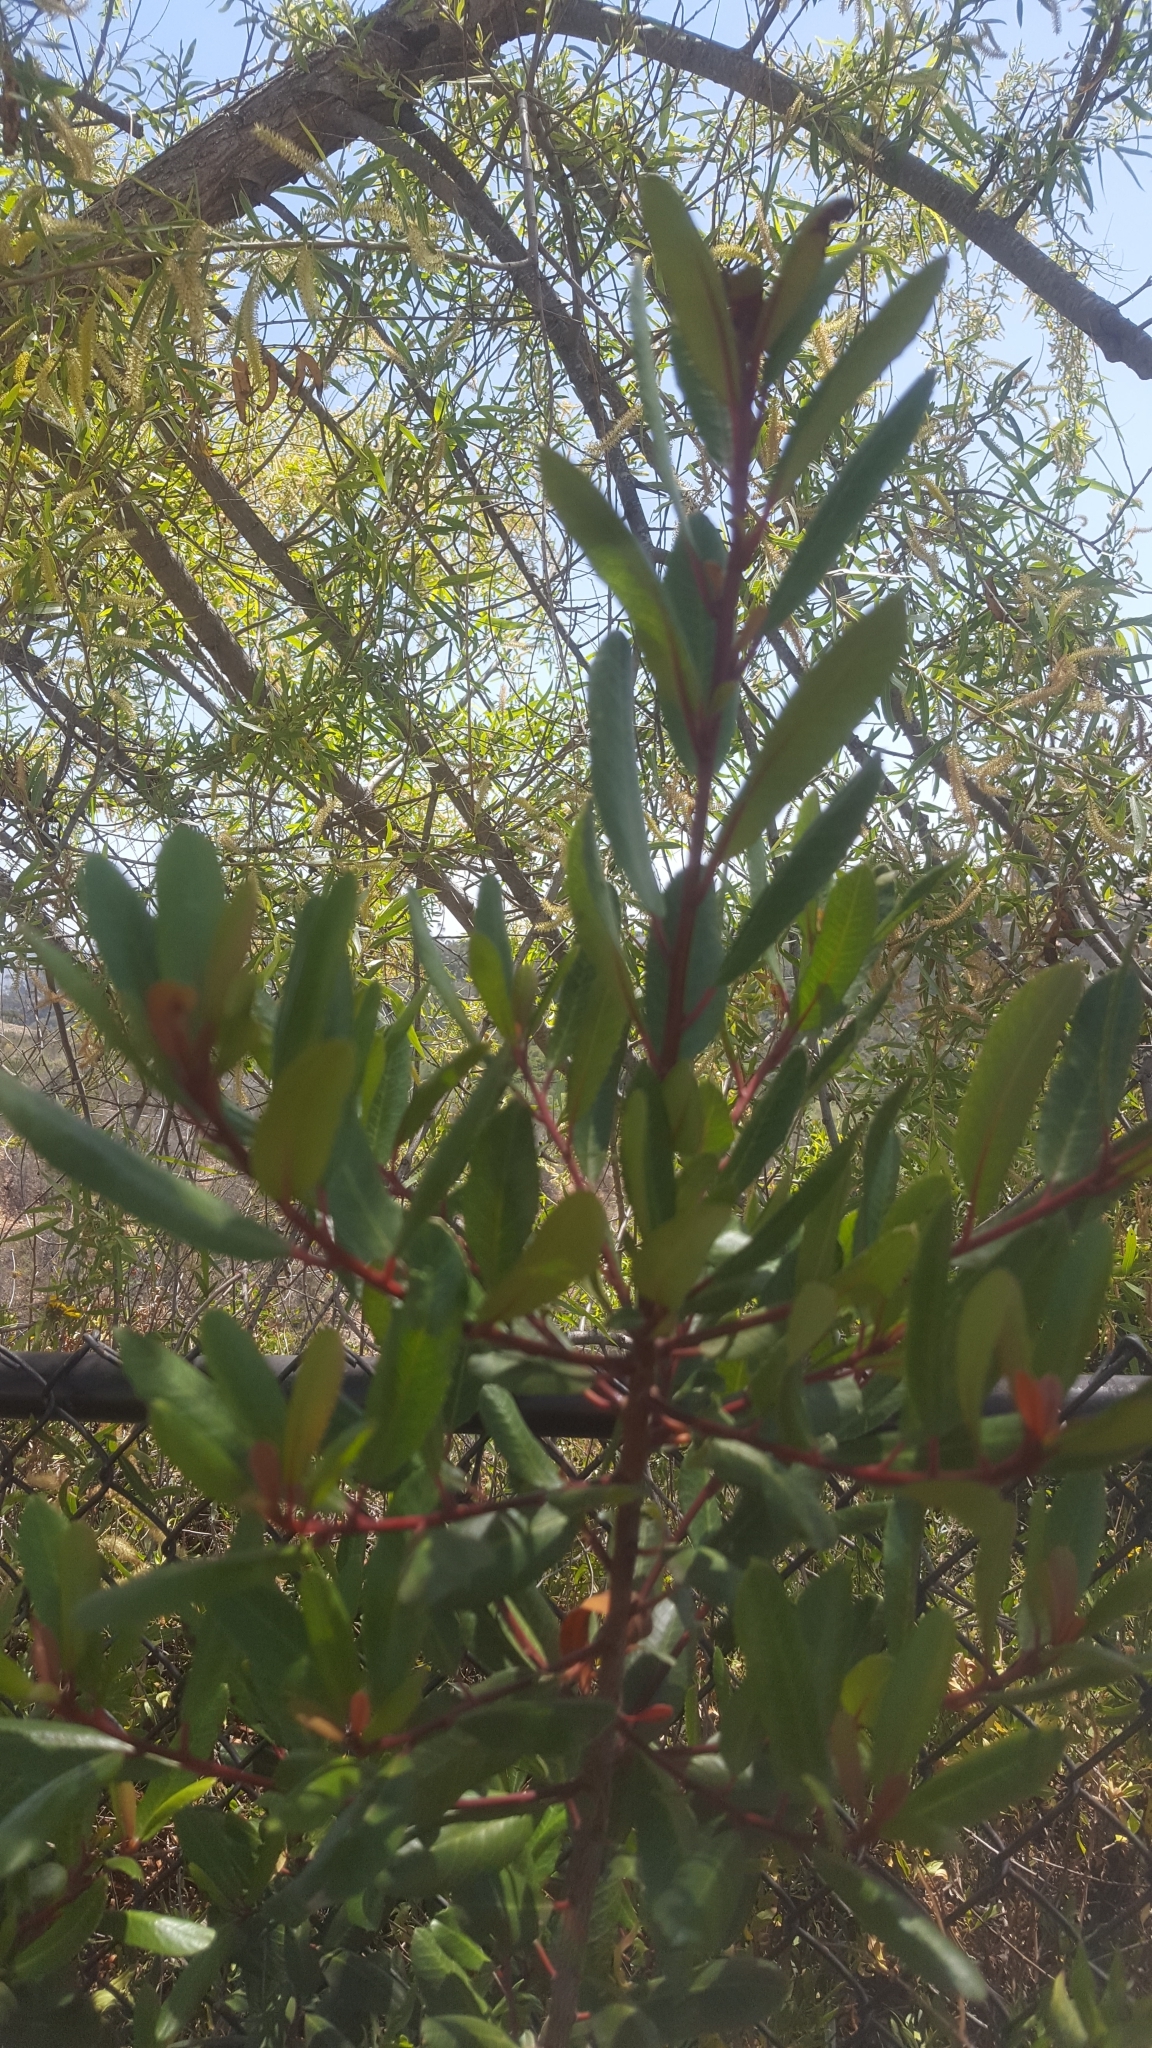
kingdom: Plantae
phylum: Tracheophyta
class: Magnoliopsida
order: Rosales
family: Rosaceae
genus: Heteromeles
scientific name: Heteromeles arbutifolia
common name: California-holly
